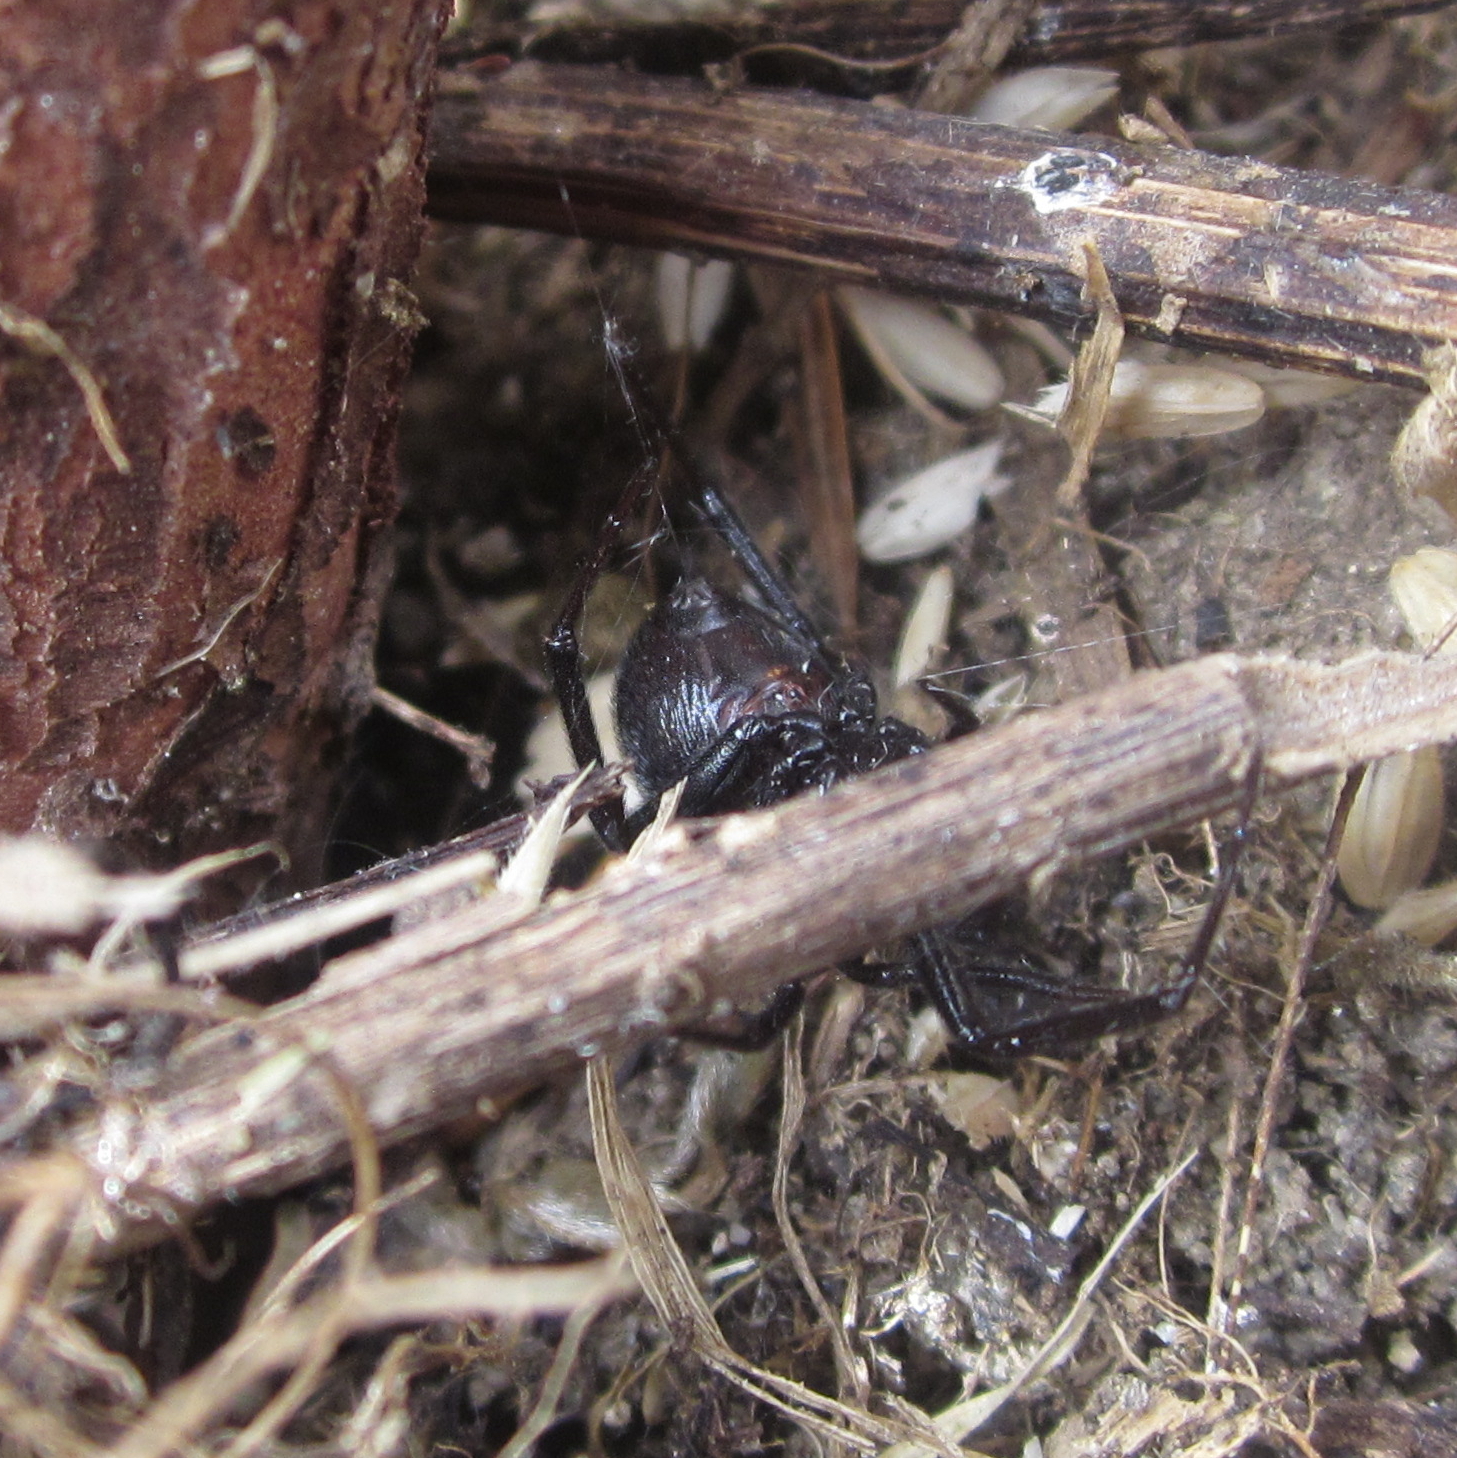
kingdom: Animalia
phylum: Arthropoda
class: Arachnida
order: Araneae
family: Theridiidae
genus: Steatoda
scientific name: Steatoda capensis
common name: Cobweb weaver
